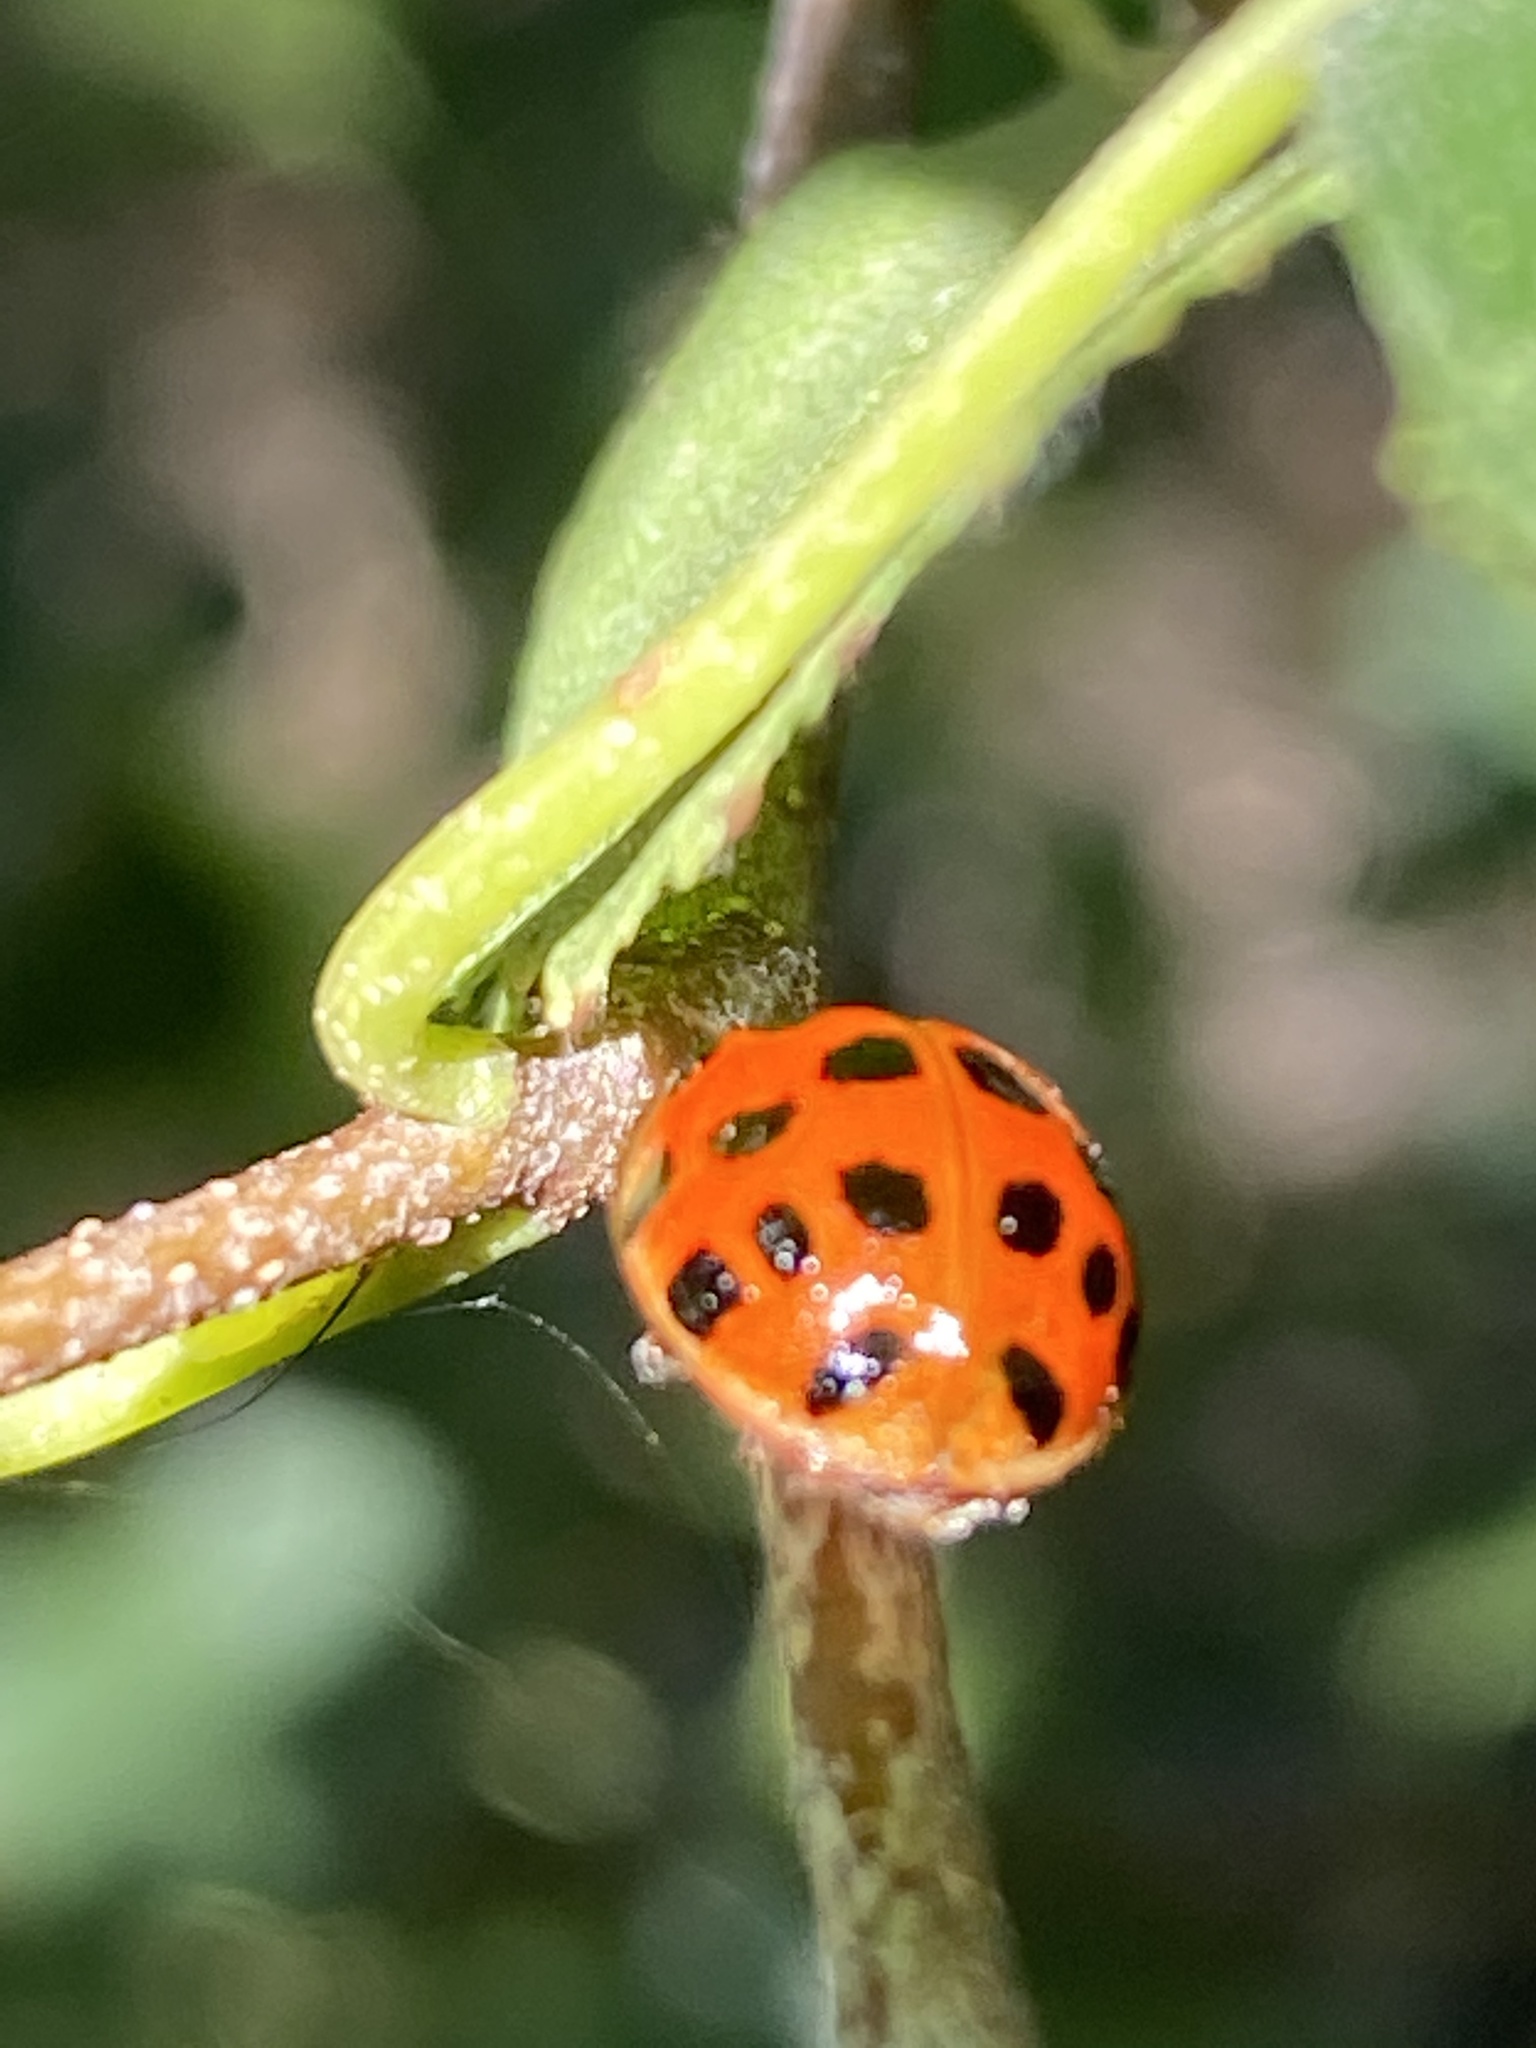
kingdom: Animalia
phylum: Arthropoda
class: Insecta
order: Coleoptera
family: Coccinellidae
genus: Harmonia
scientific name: Harmonia axyridis
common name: Harlequin ladybird
